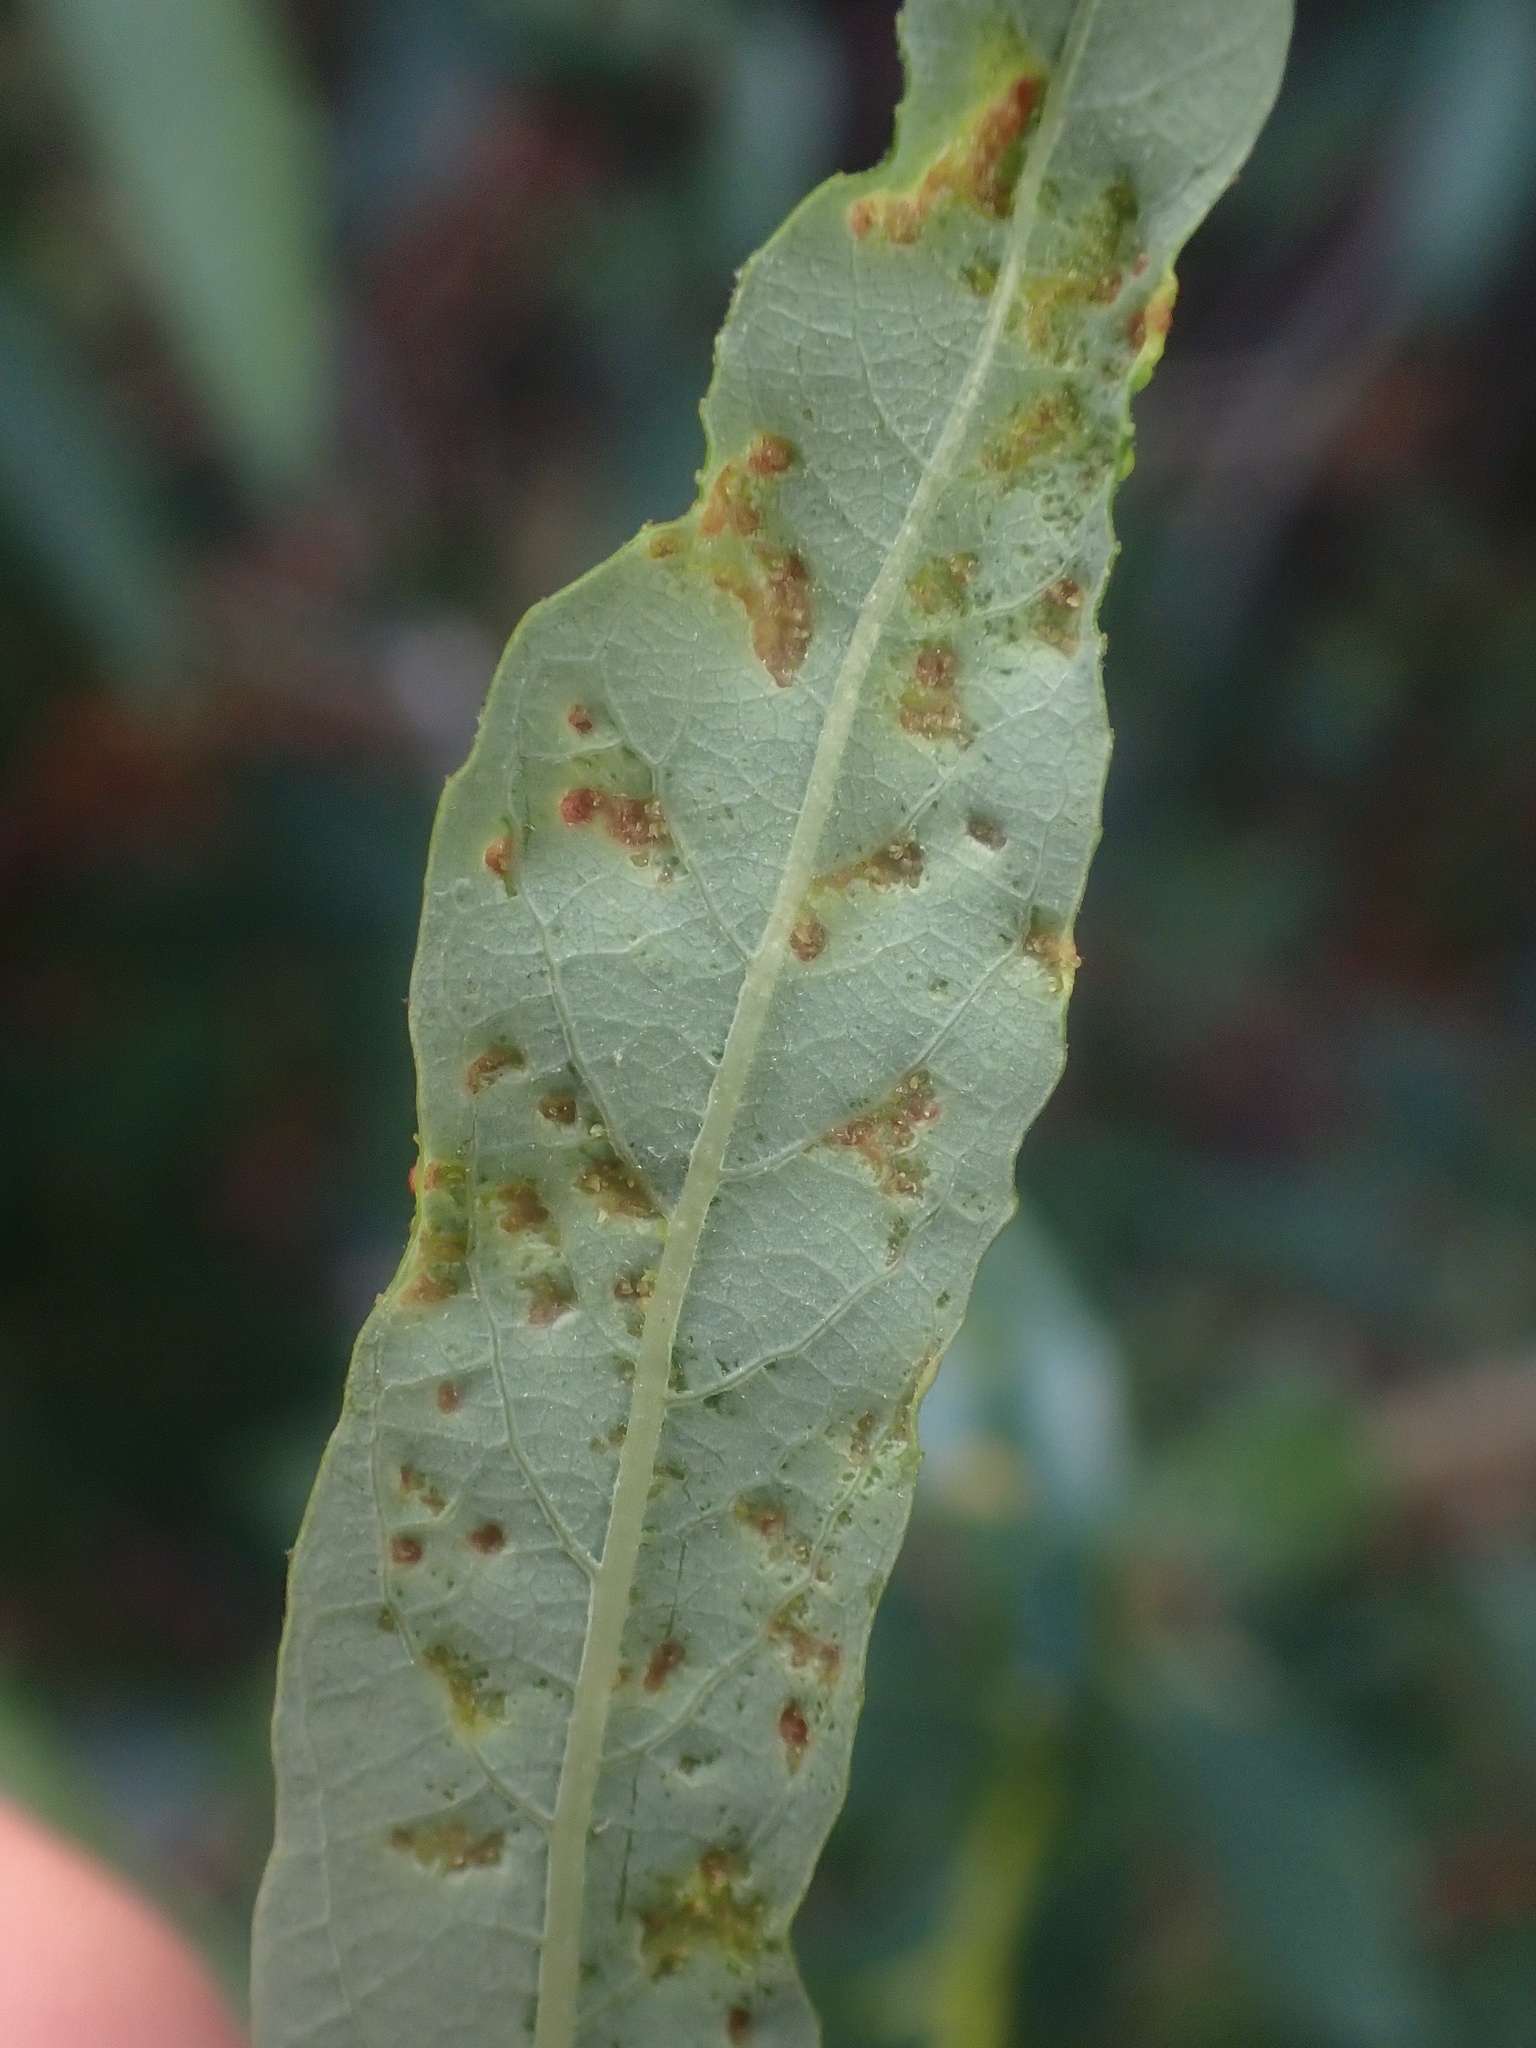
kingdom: Animalia
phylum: Arthropoda
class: Arachnida
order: Trombidiformes
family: Eriophyidae
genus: Aculus
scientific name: Aculus tetanothrix
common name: Willow bead gall mite
